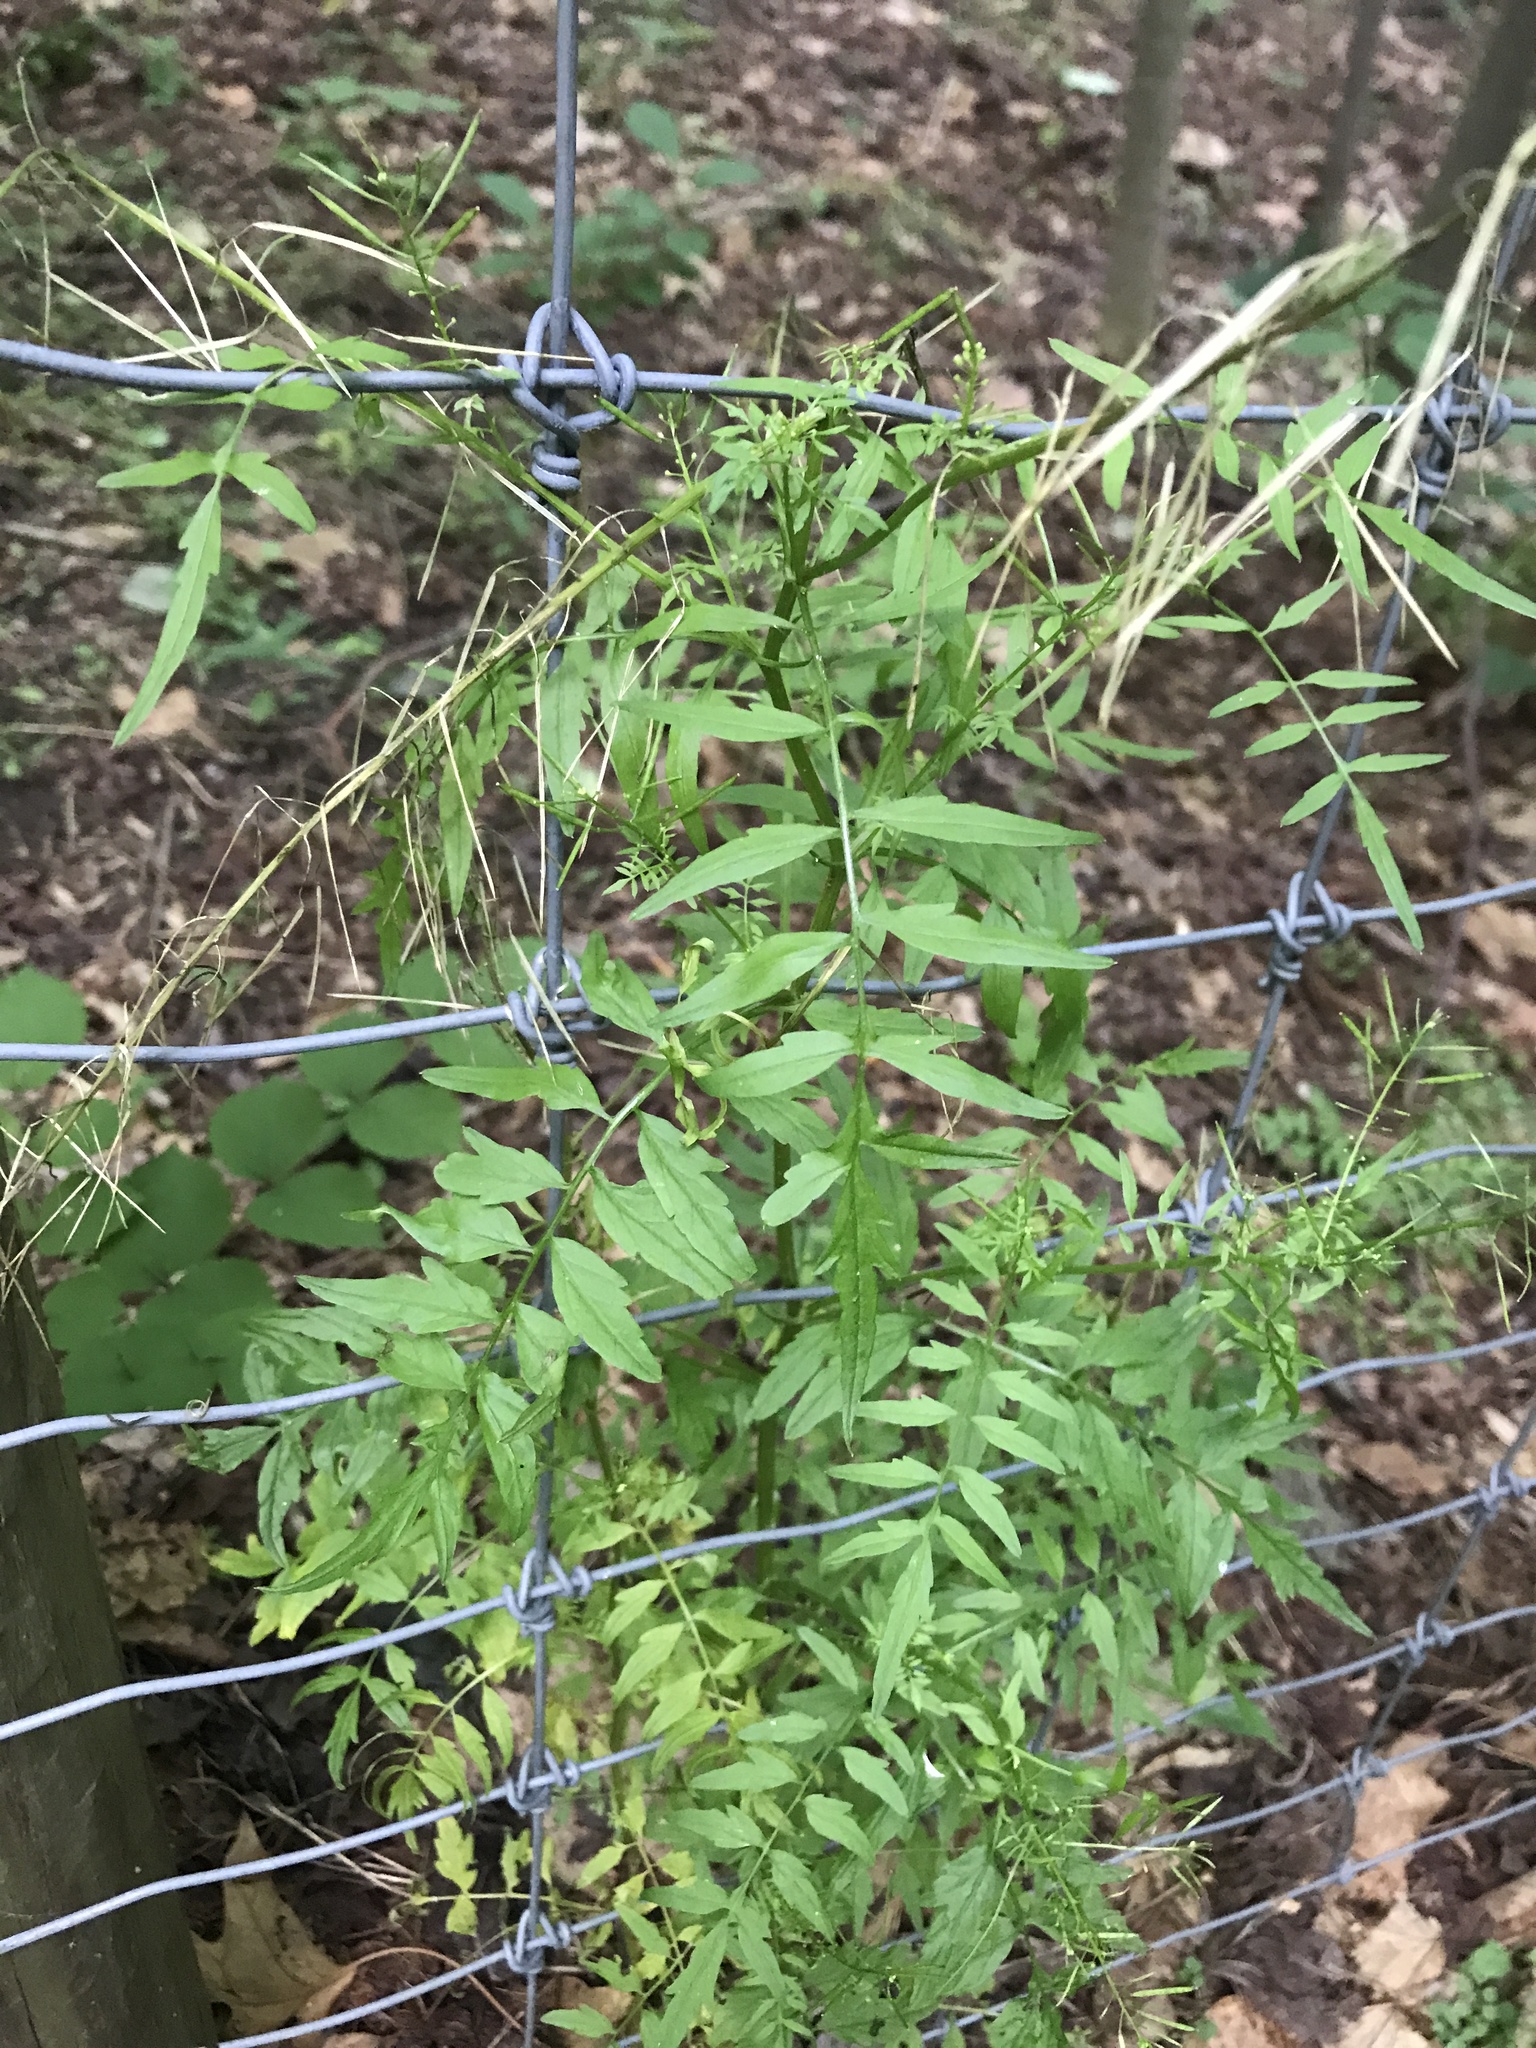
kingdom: Plantae
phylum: Tracheophyta
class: Magnoliopsida
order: Brassicales
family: Brassicaceae
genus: Cardamine
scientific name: Cardamine impatiens
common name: Narrow-leaved bitter-cress
